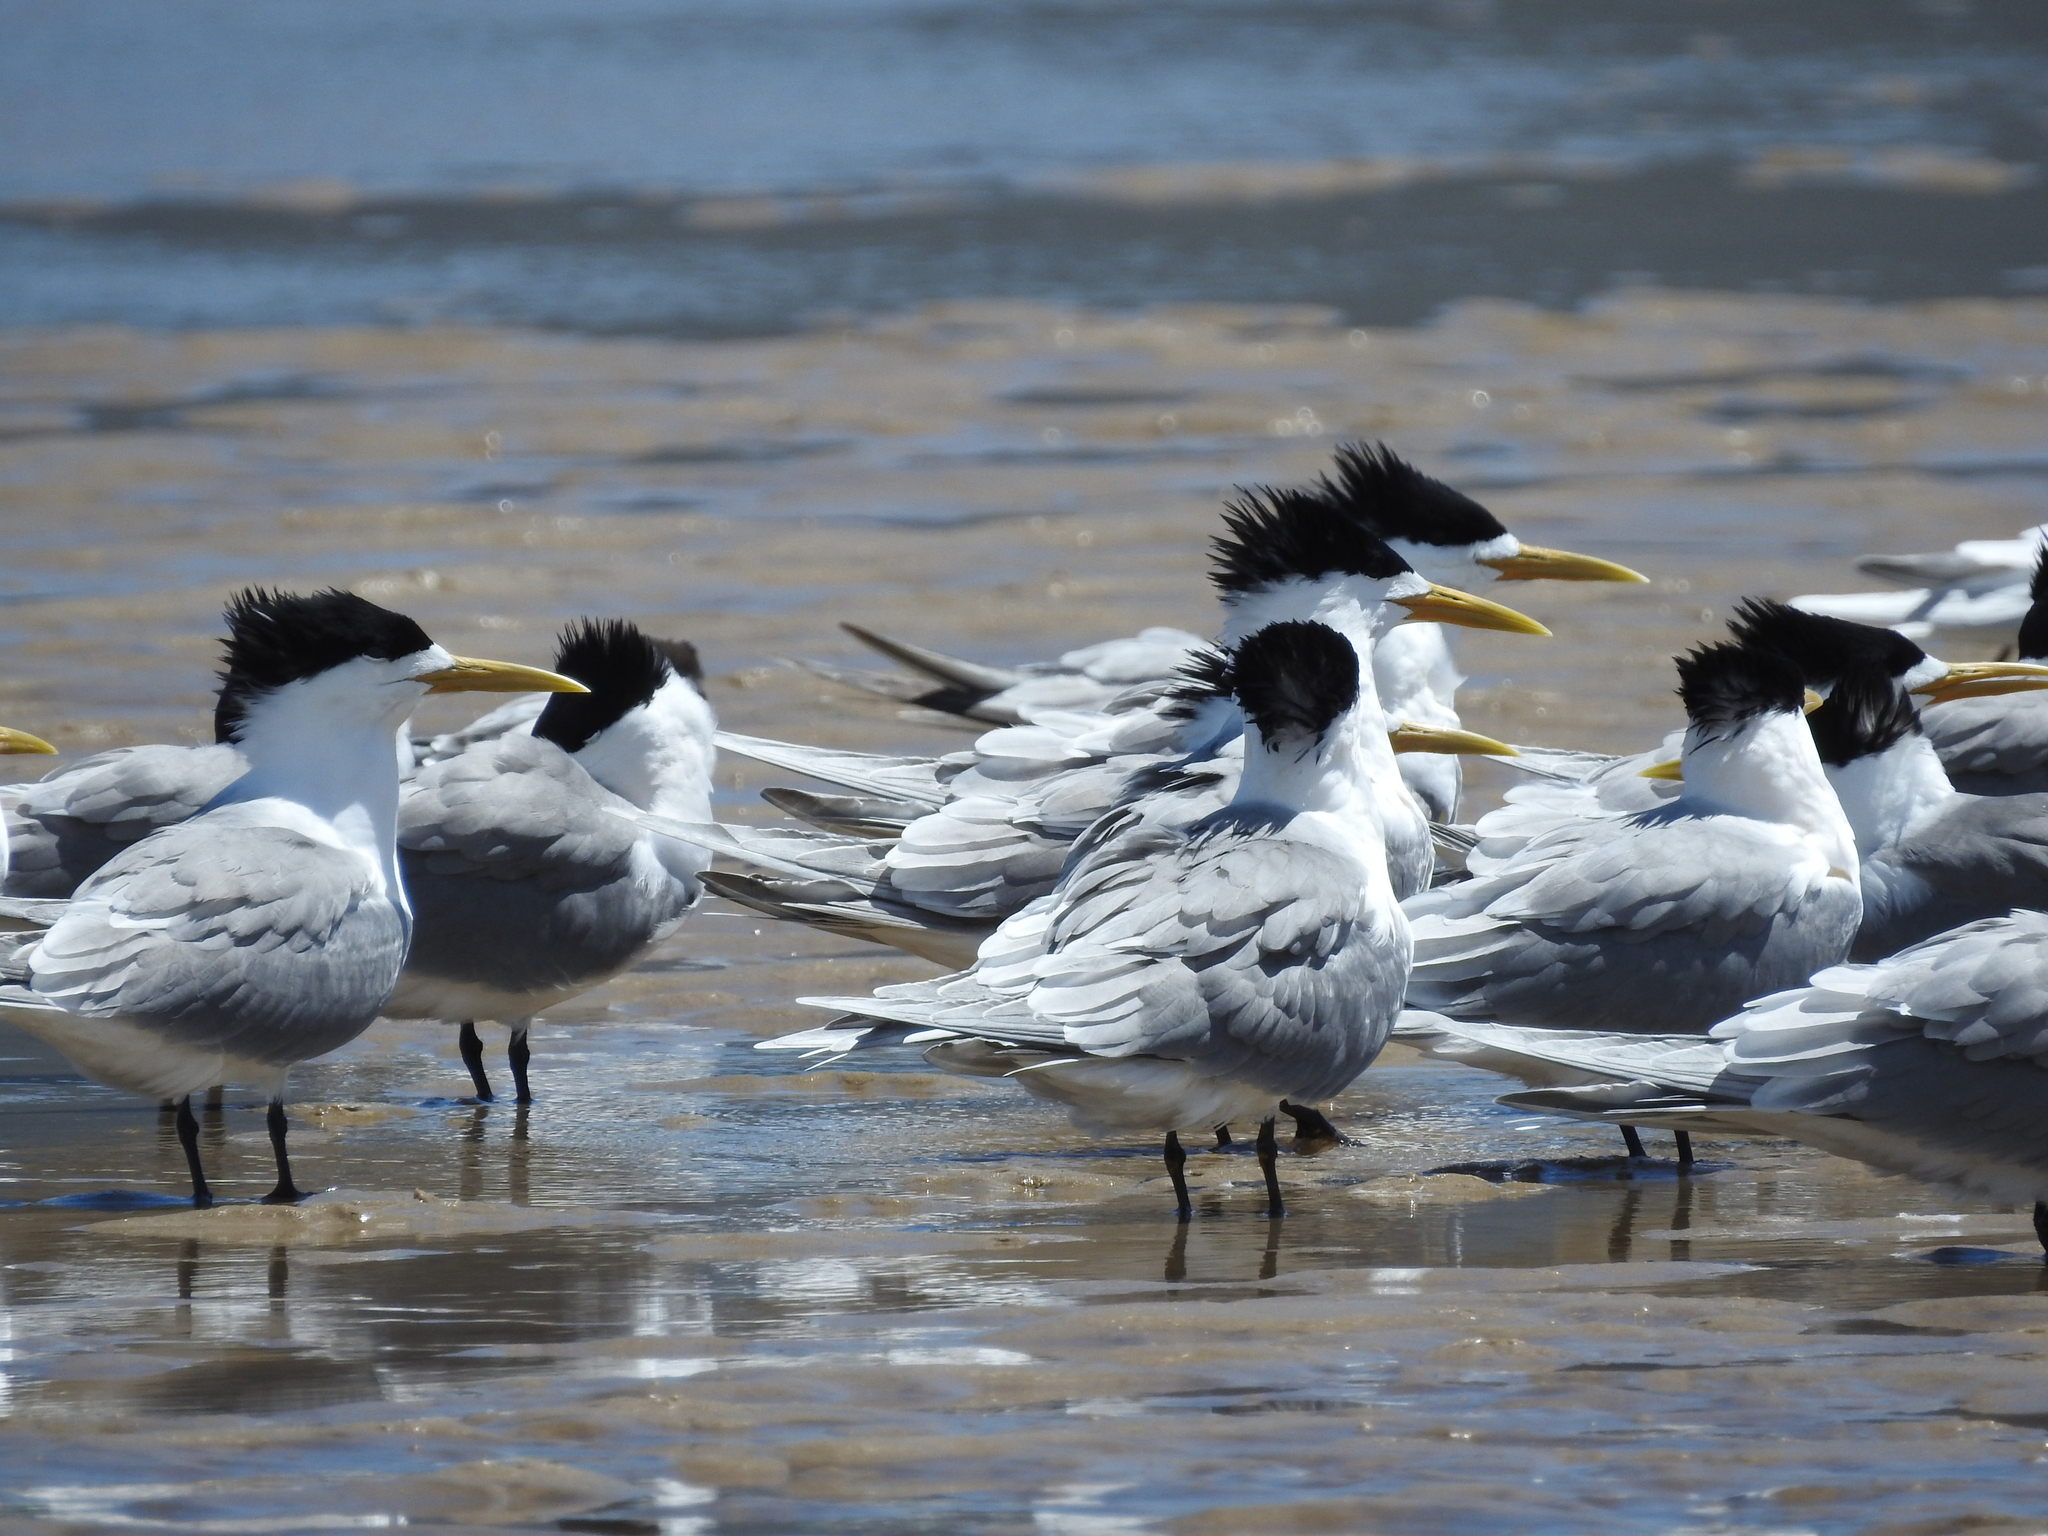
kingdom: Animalia
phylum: Chordata
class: Aves
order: Charadriiformes
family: Laridae
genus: Thalasseus
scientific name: Thalasseus bergii
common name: Greater crested tern
